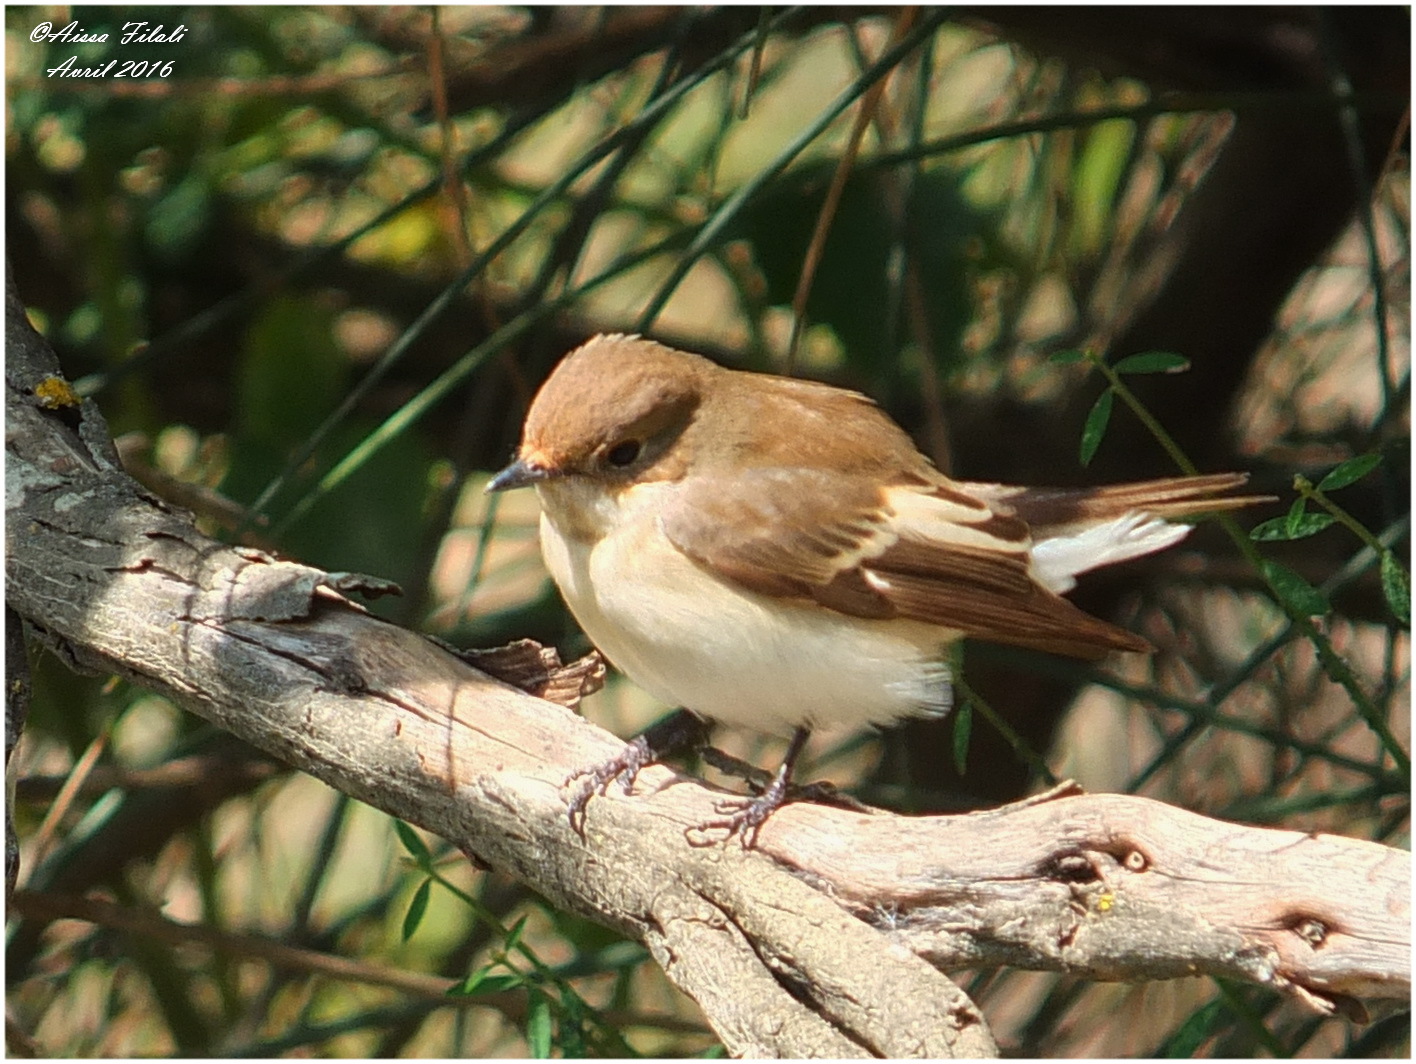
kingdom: Animalia
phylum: Chordata
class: Aves
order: Passeriformes
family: Muscicapidae
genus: Ficedula
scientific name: Ficedula hypoleuca
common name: European pied flycatcher
